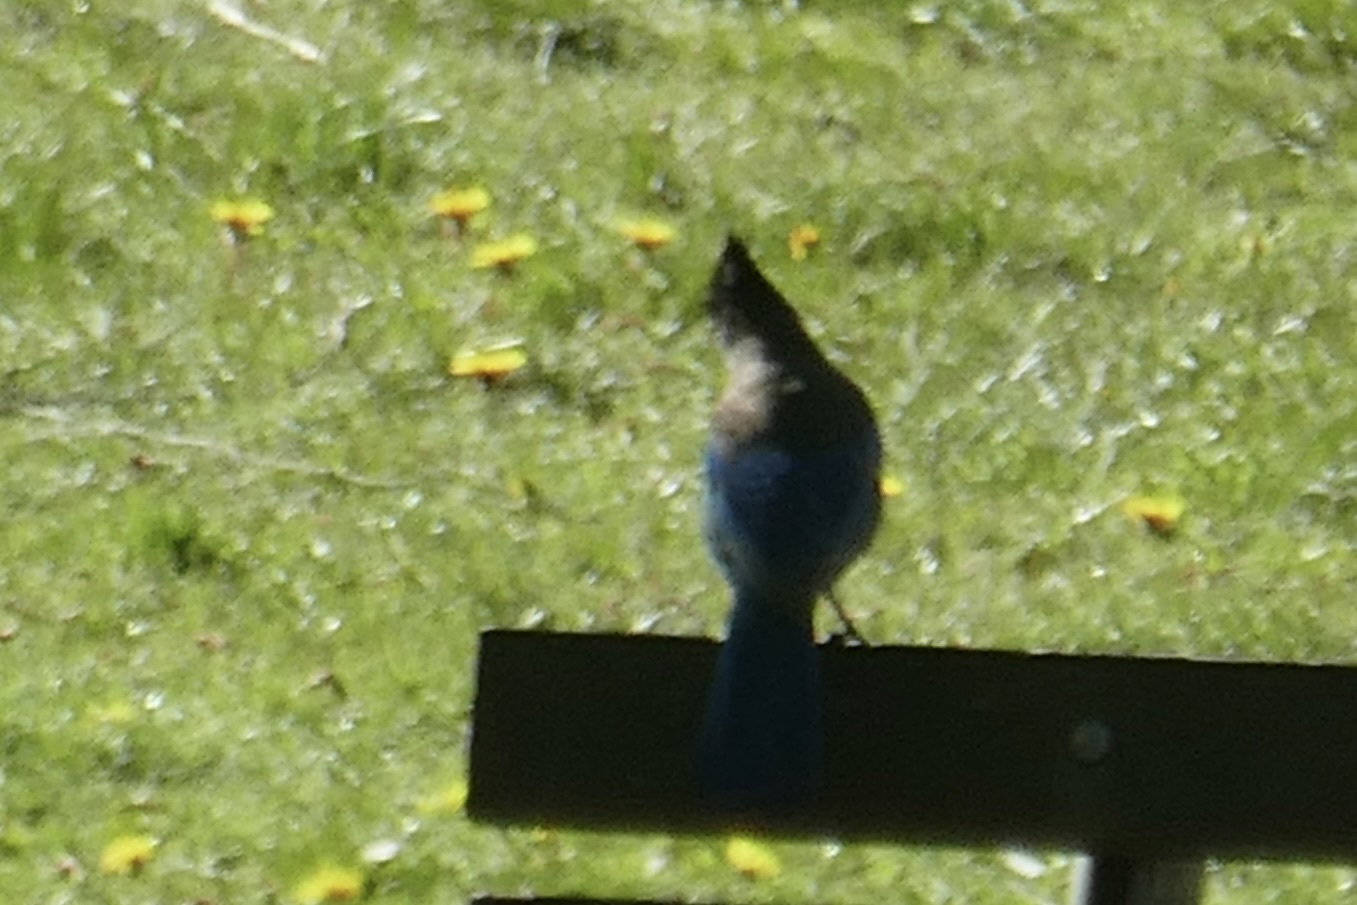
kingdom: Animalia
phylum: Chordata
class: Aves
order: Passeriformes
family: Corvidae
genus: Cyanocitta
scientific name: Cyanocitta stelleri
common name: Steller's jay
